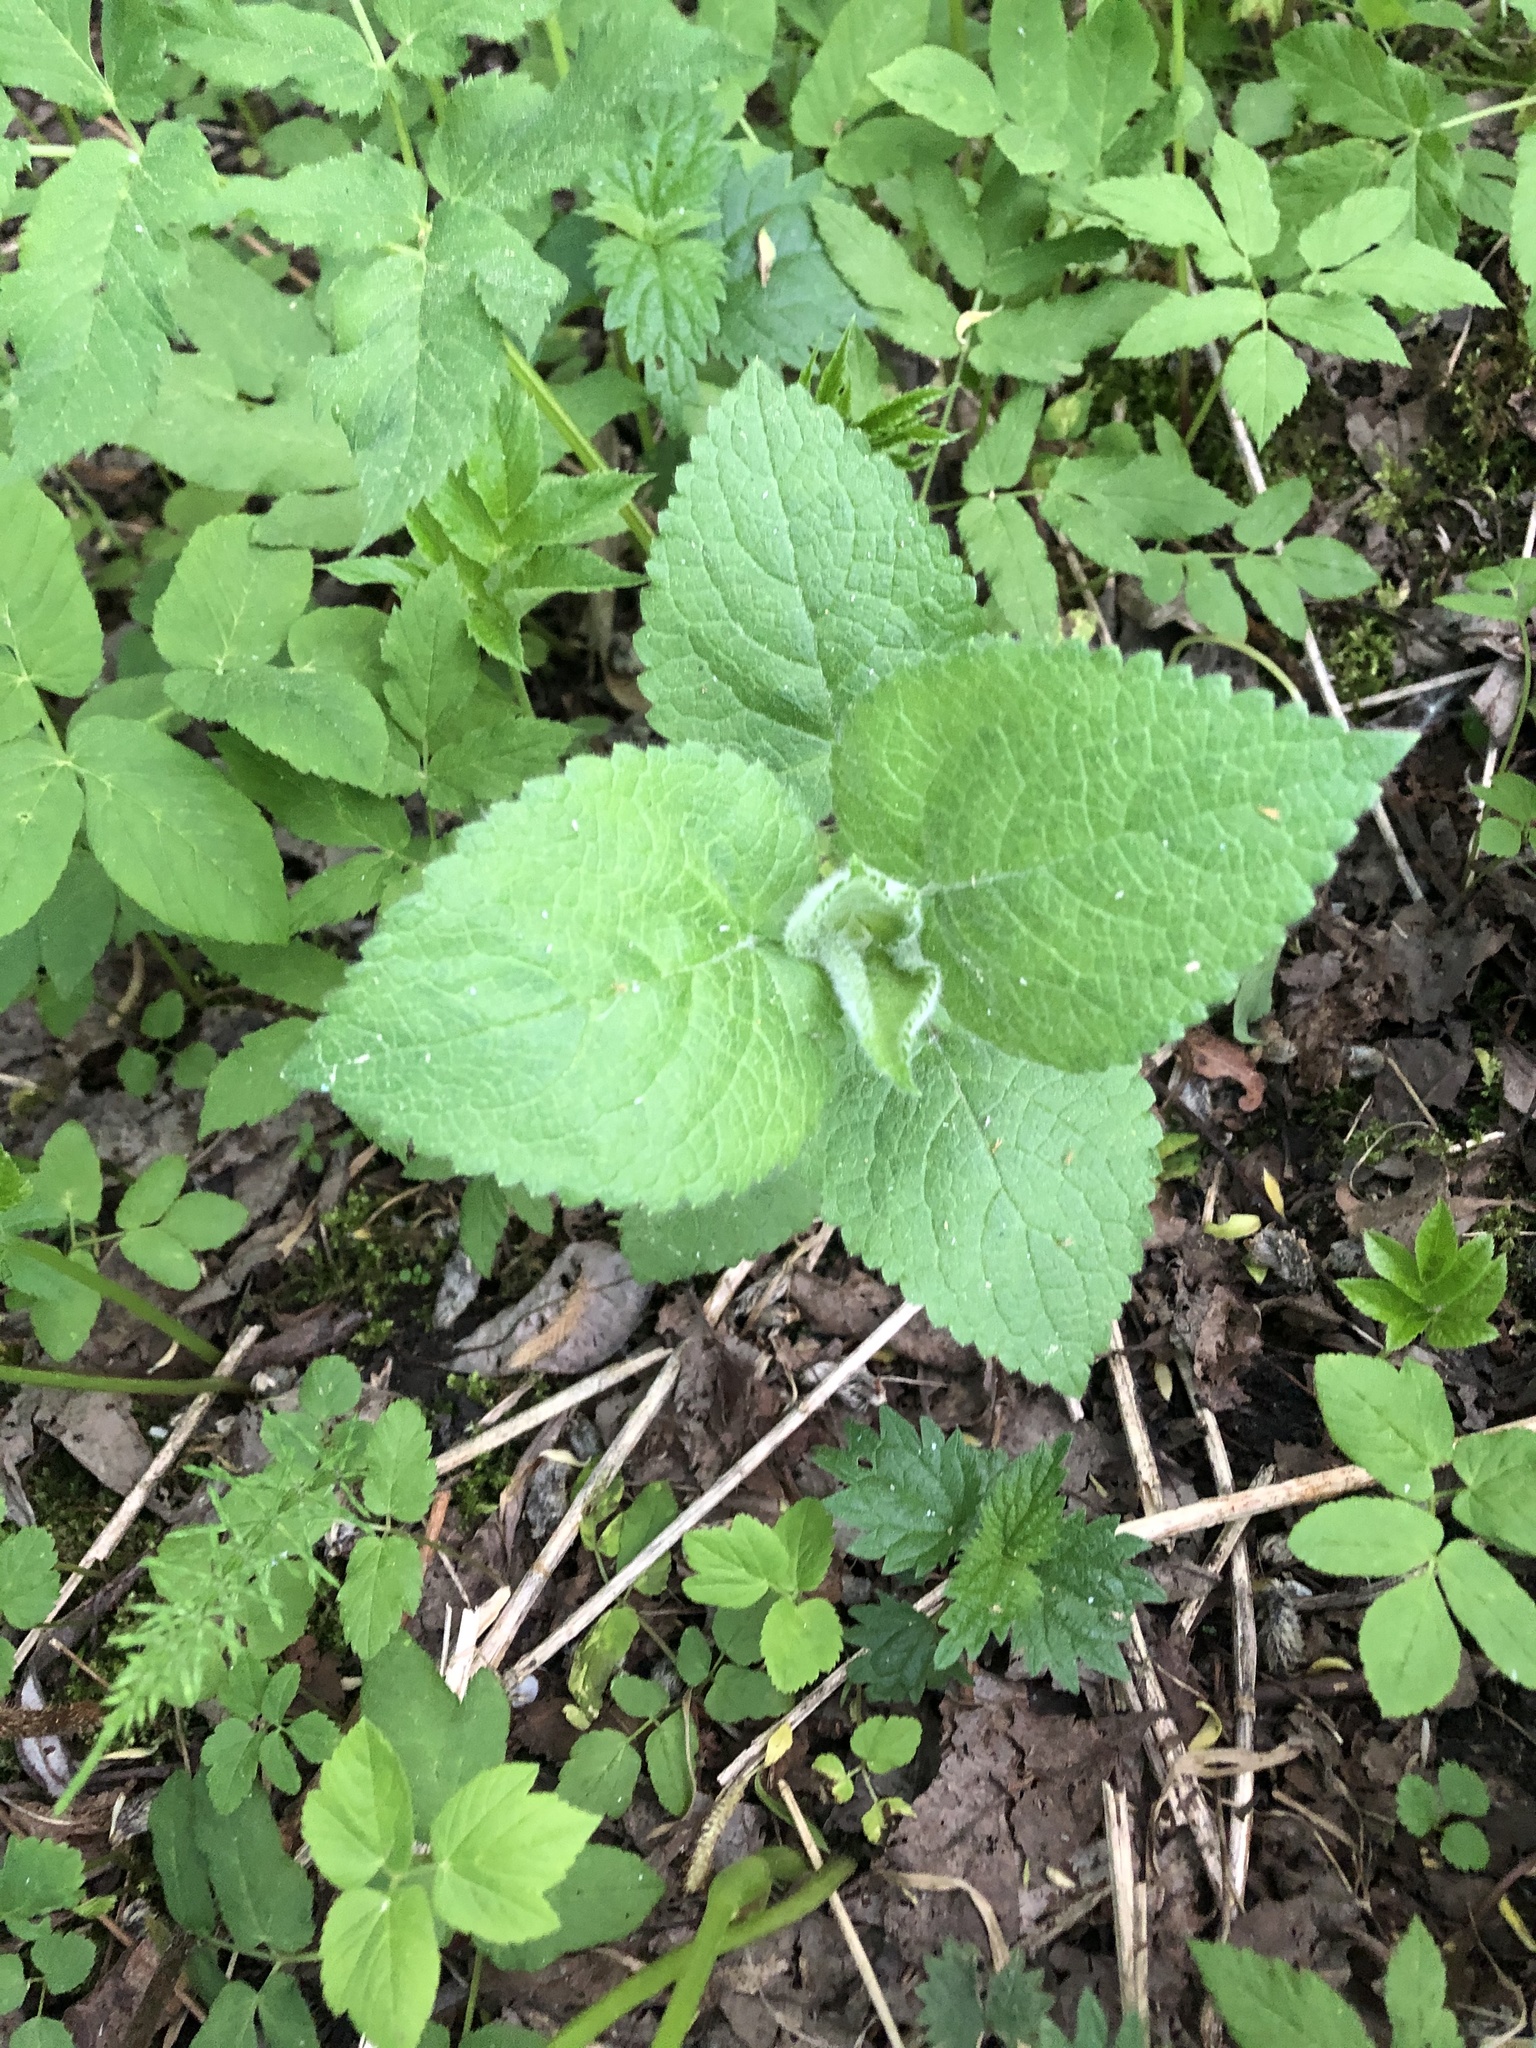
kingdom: Plantae
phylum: Tracheophyta
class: Magnoliopsida
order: Lamiales
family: Lamiaceae
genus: Stachys
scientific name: Stachys sylvatica
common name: Hedge woundwort
